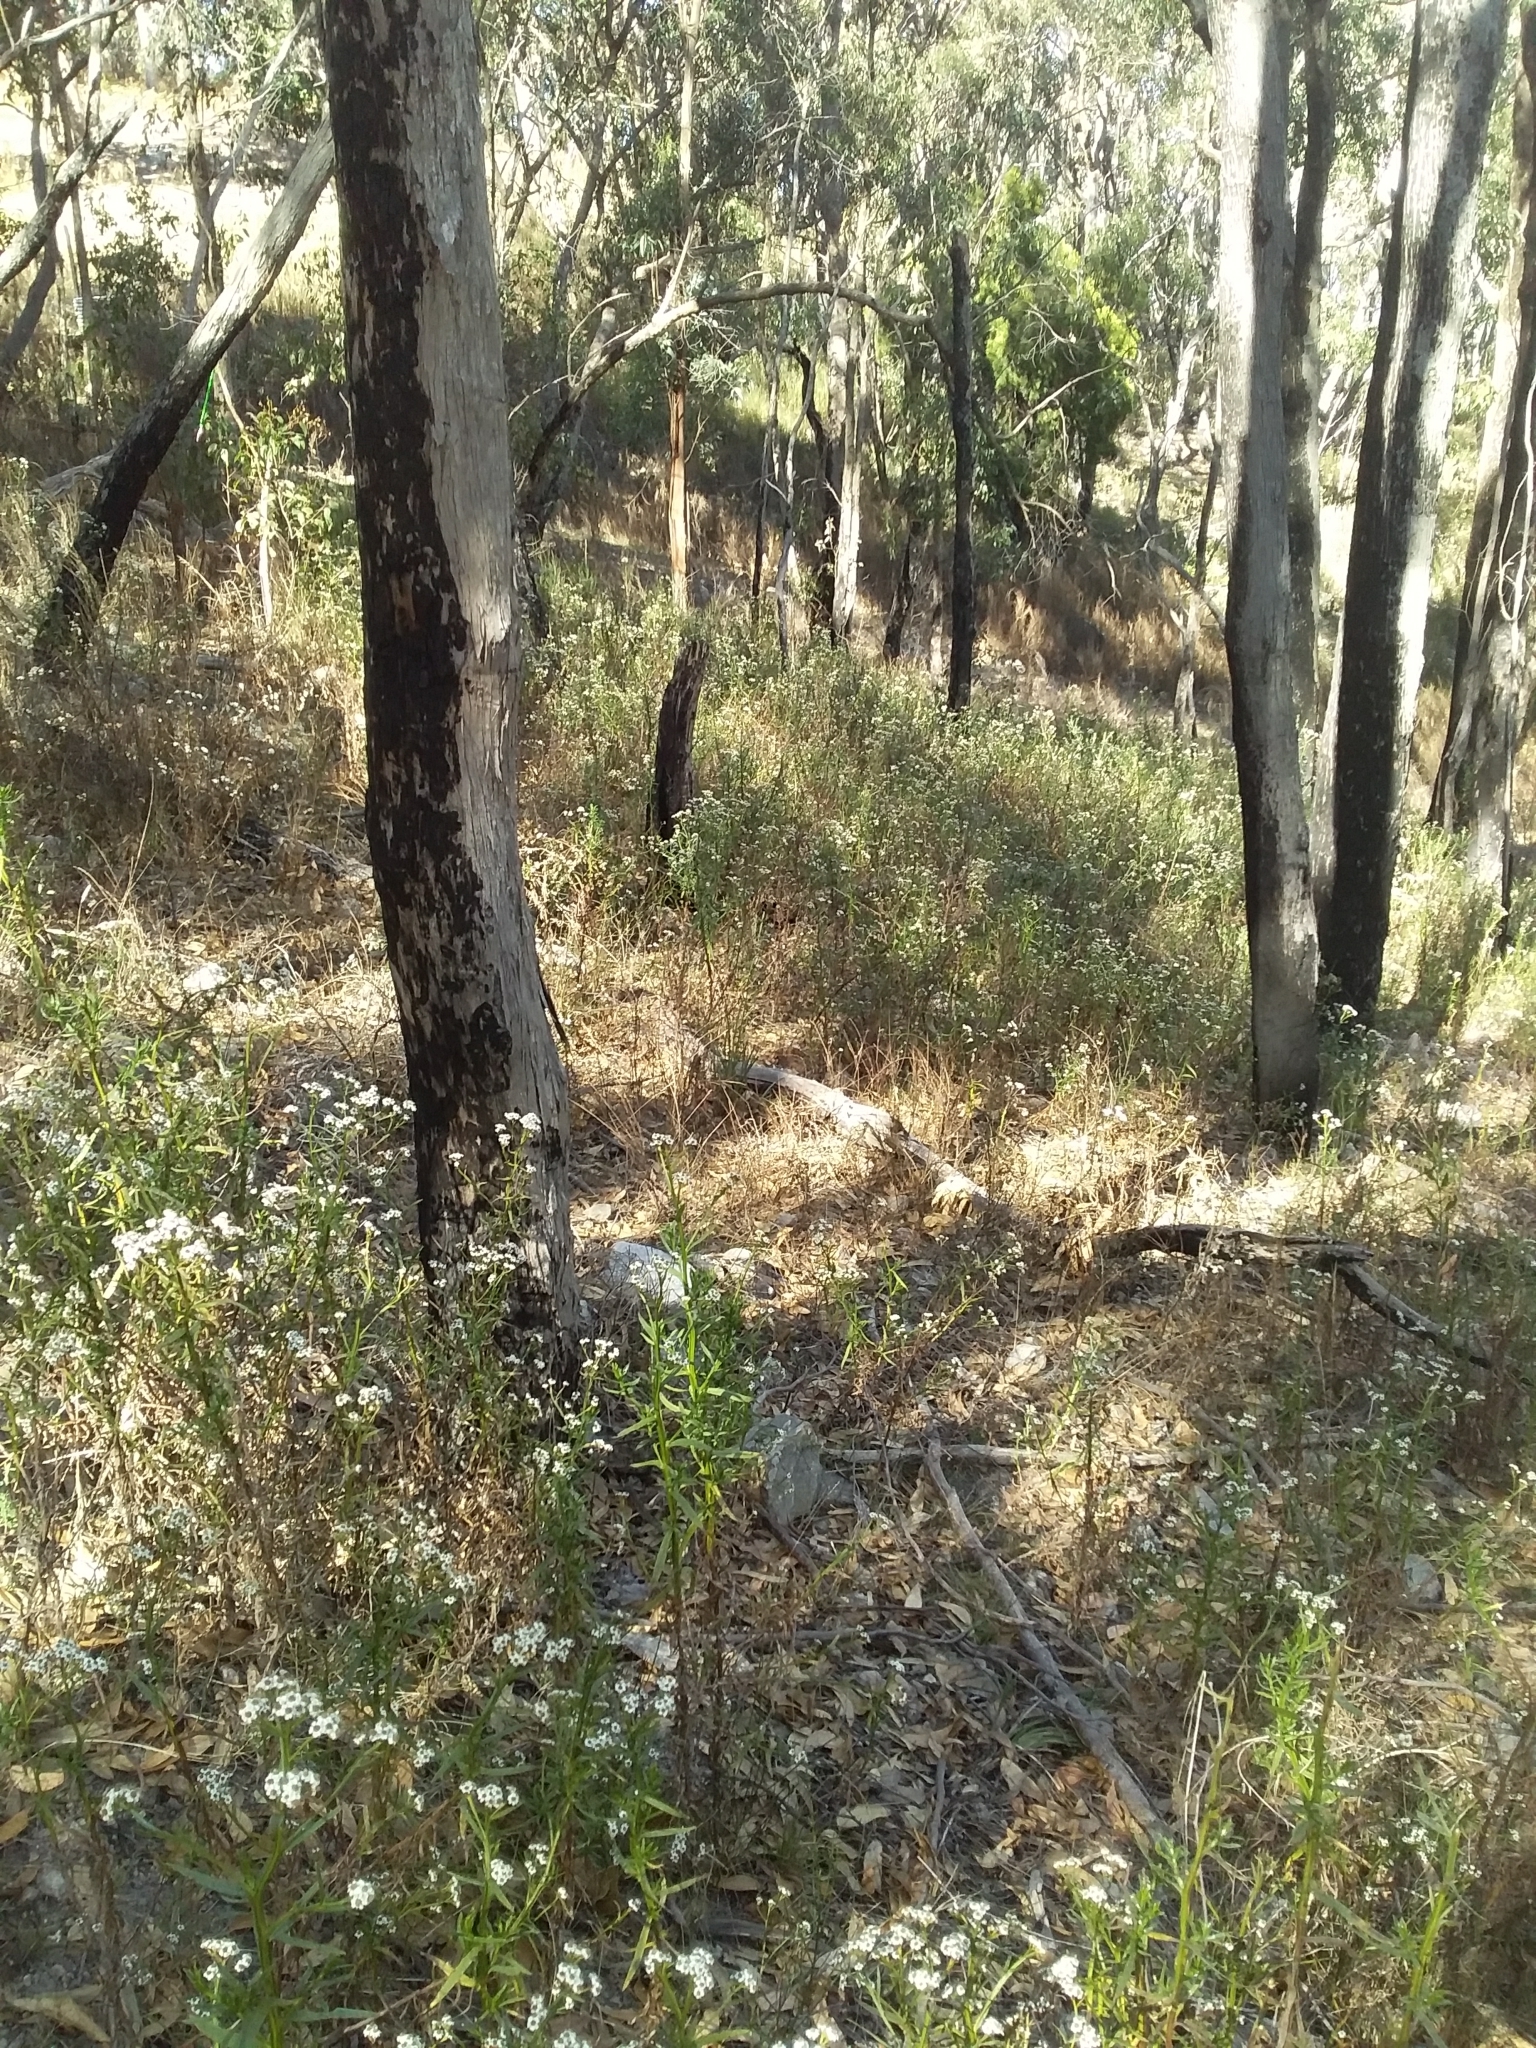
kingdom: Plantae
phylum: Tracheophyta
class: Magnoliopsida
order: Asterales
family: Asteraceae
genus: Ixodia
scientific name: Ixodia achillaeoides
